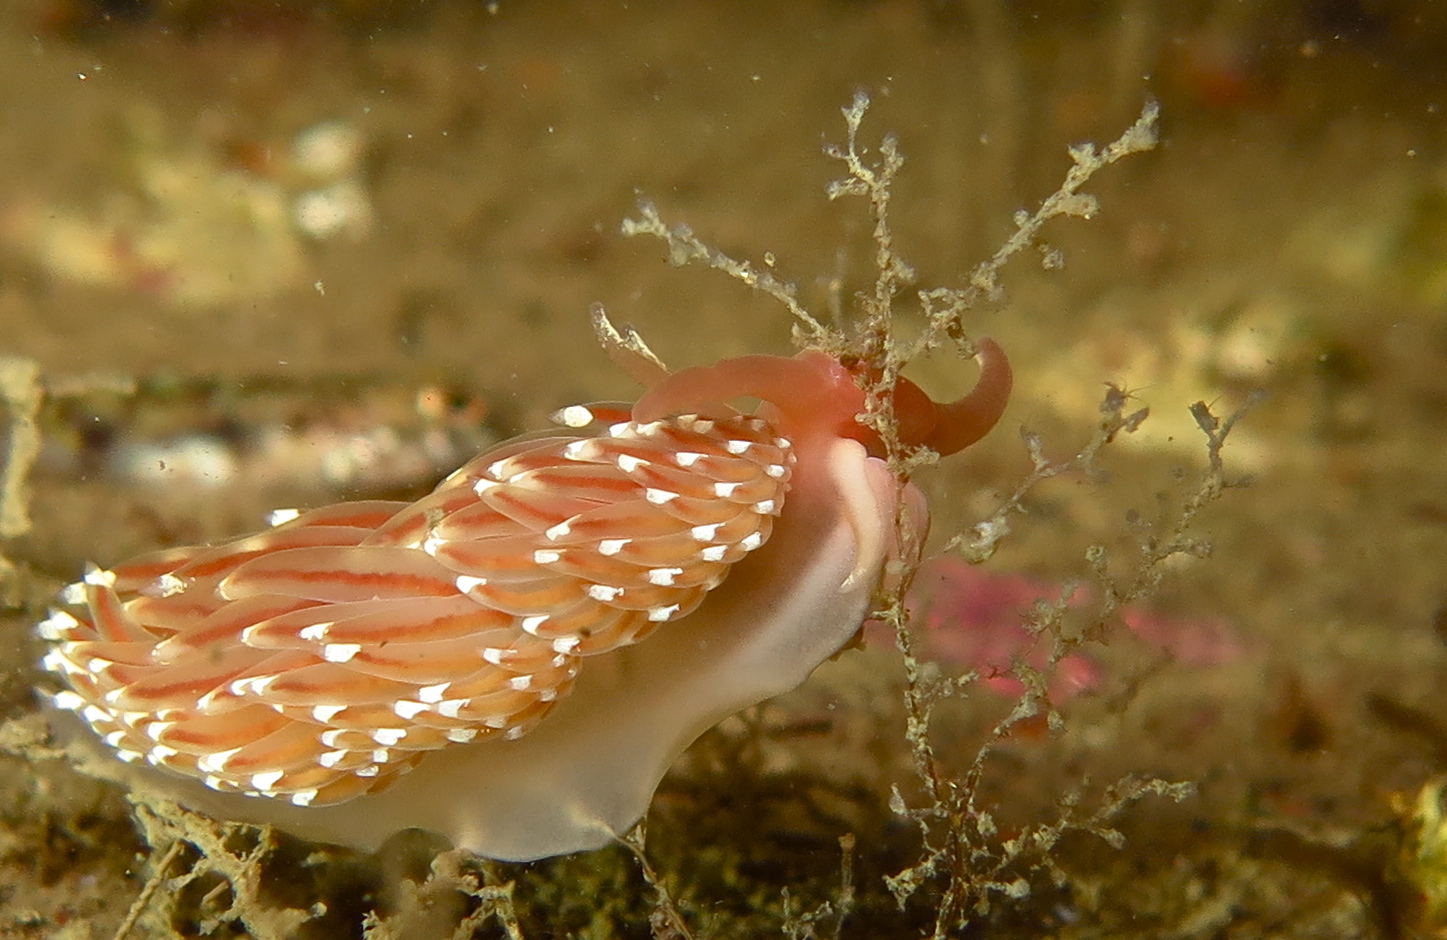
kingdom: Animalia
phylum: Mollusca
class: Gastropoda
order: Nudibranchia
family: Facelinidae
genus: Facelina
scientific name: Facelina bostoniensis
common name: Boston facelina
